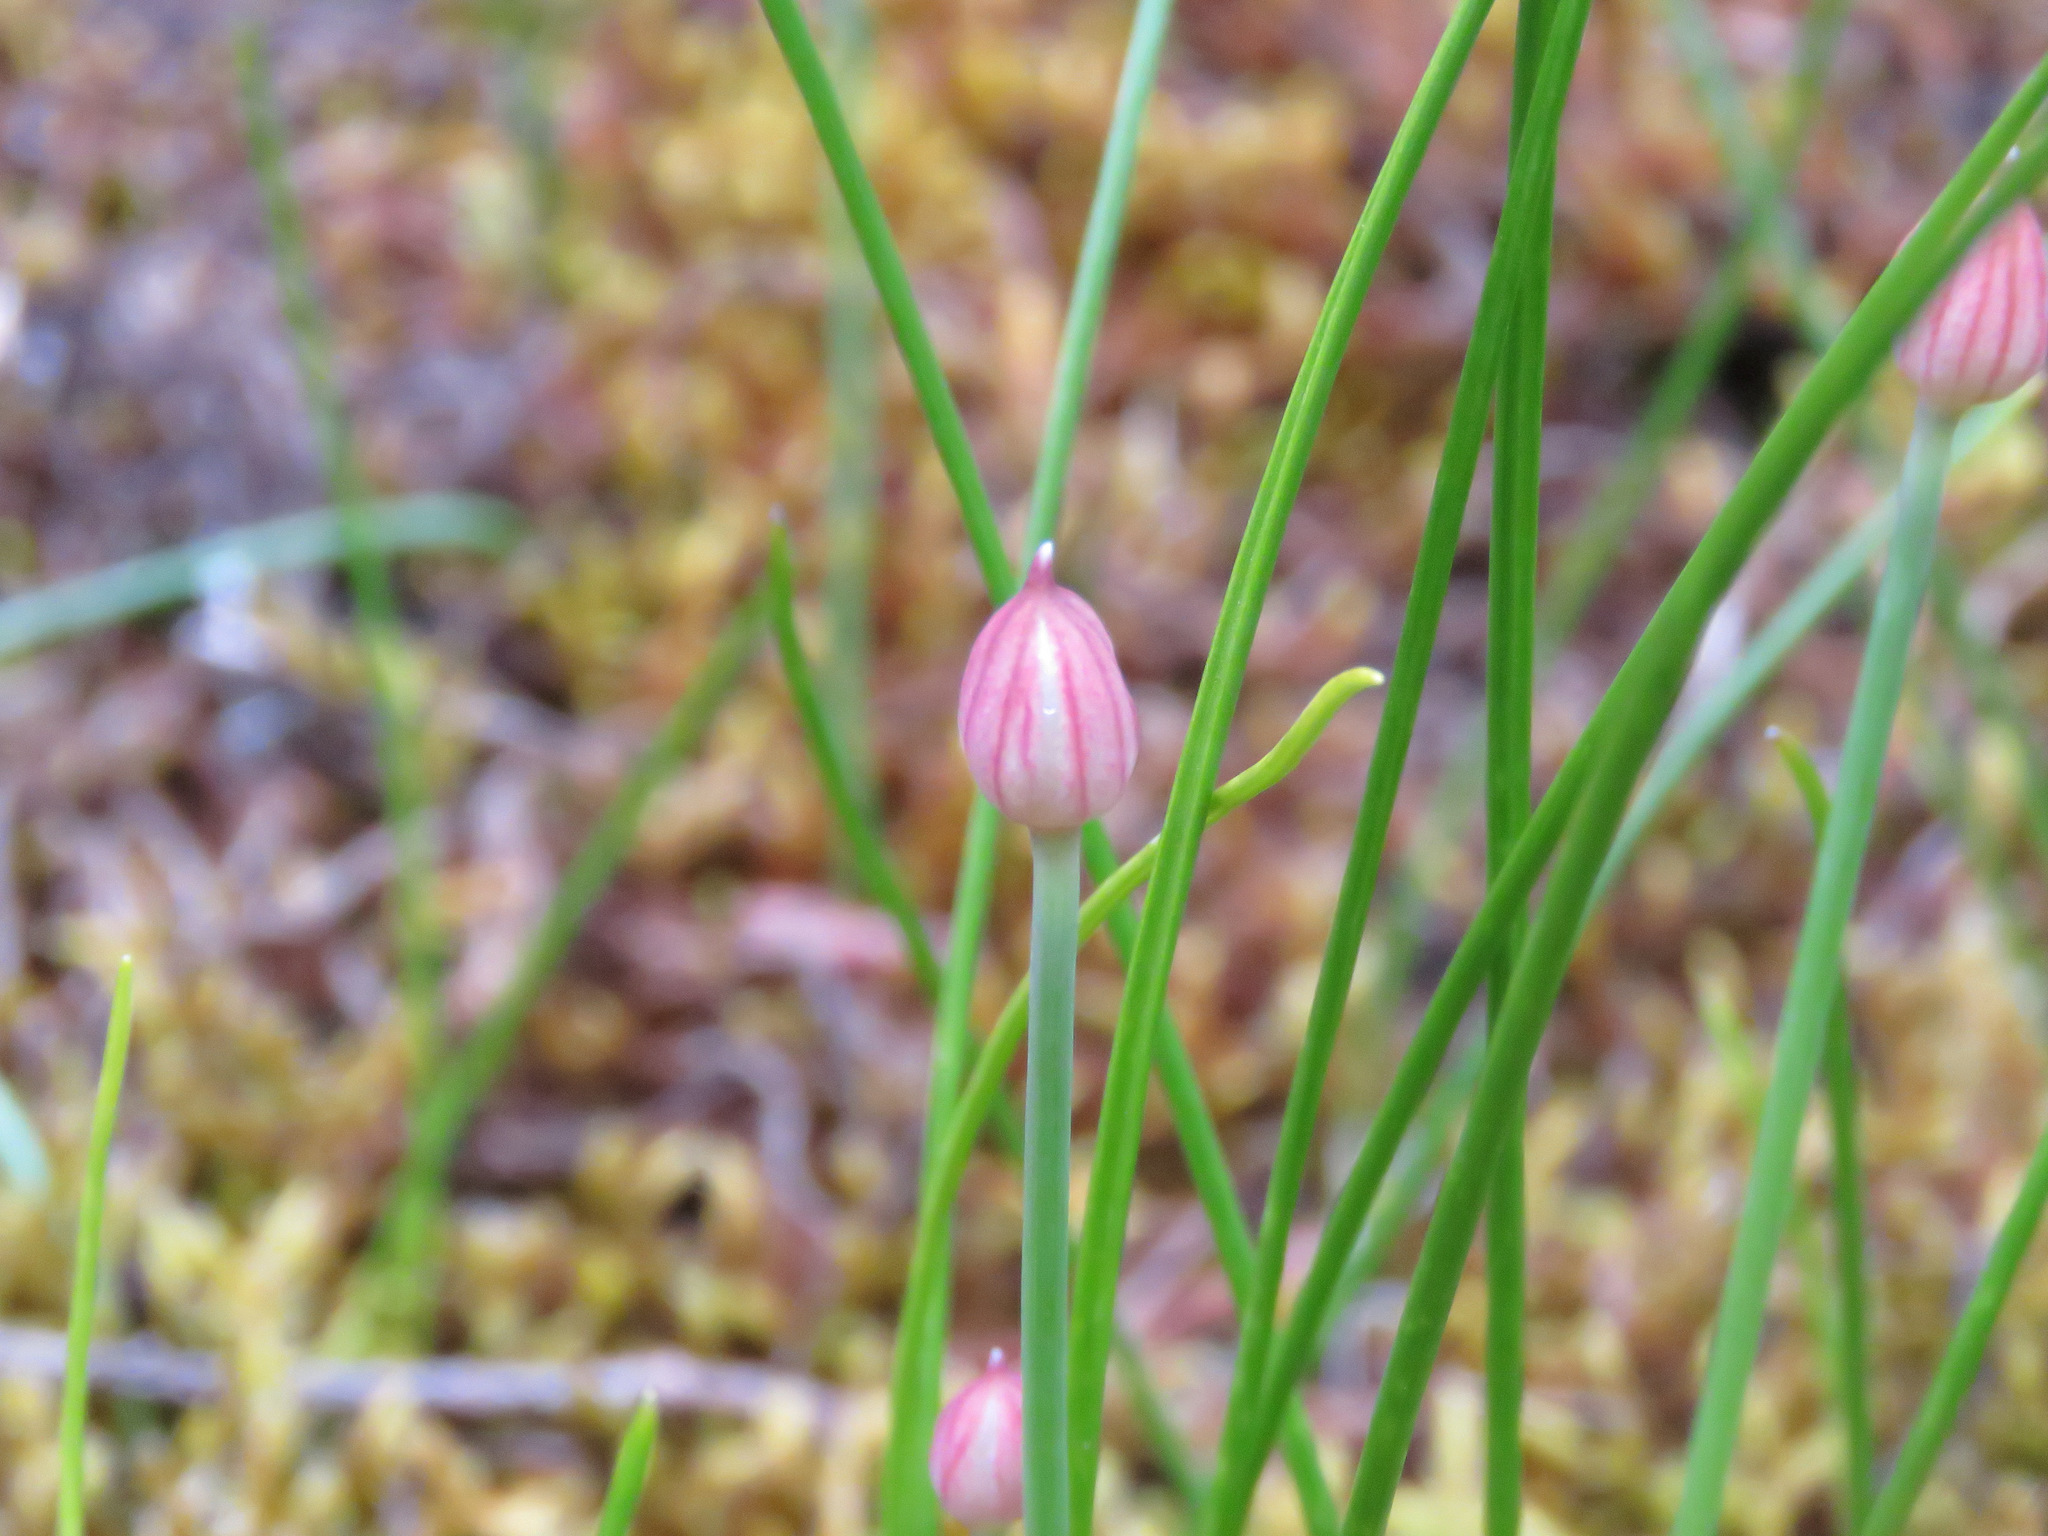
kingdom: Plantae
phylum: Tracheophyta
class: Liliopsida
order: Asparagales
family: Amaryllidaceae
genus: Allium
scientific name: Allium amplectens
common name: Narrow-leaved onion
